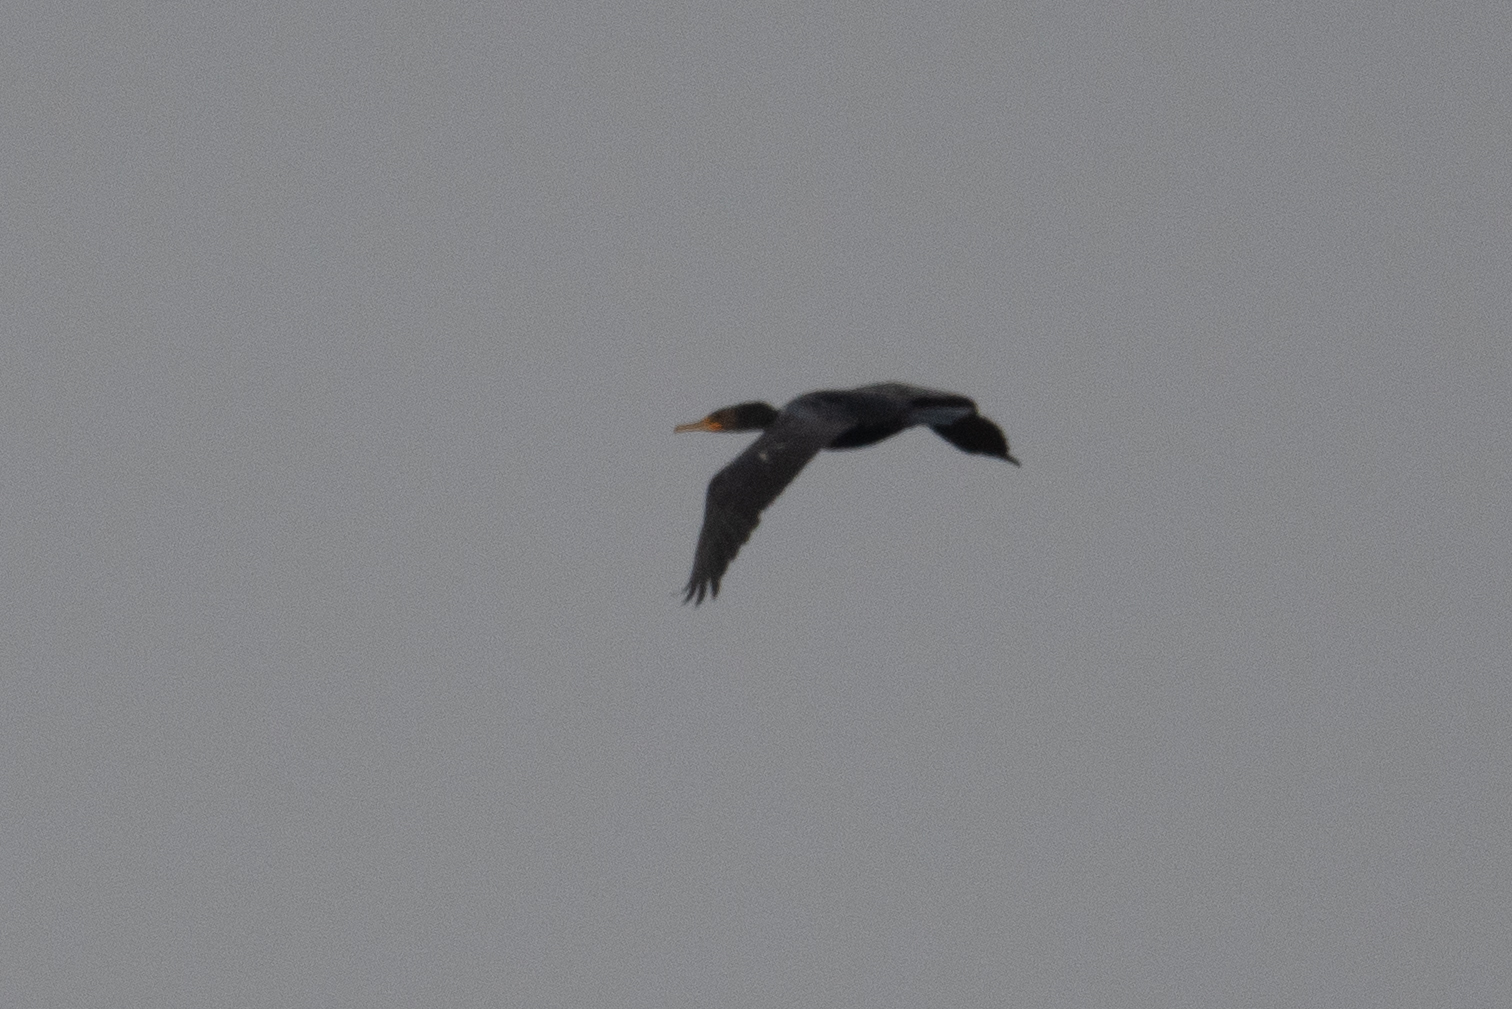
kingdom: Animalia
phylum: Chordata
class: Aves
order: Suliformes
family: Phalacrocoracidae
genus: Phalacrocorax
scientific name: Phalacrocorax auritus
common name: Double-crested cormorant
